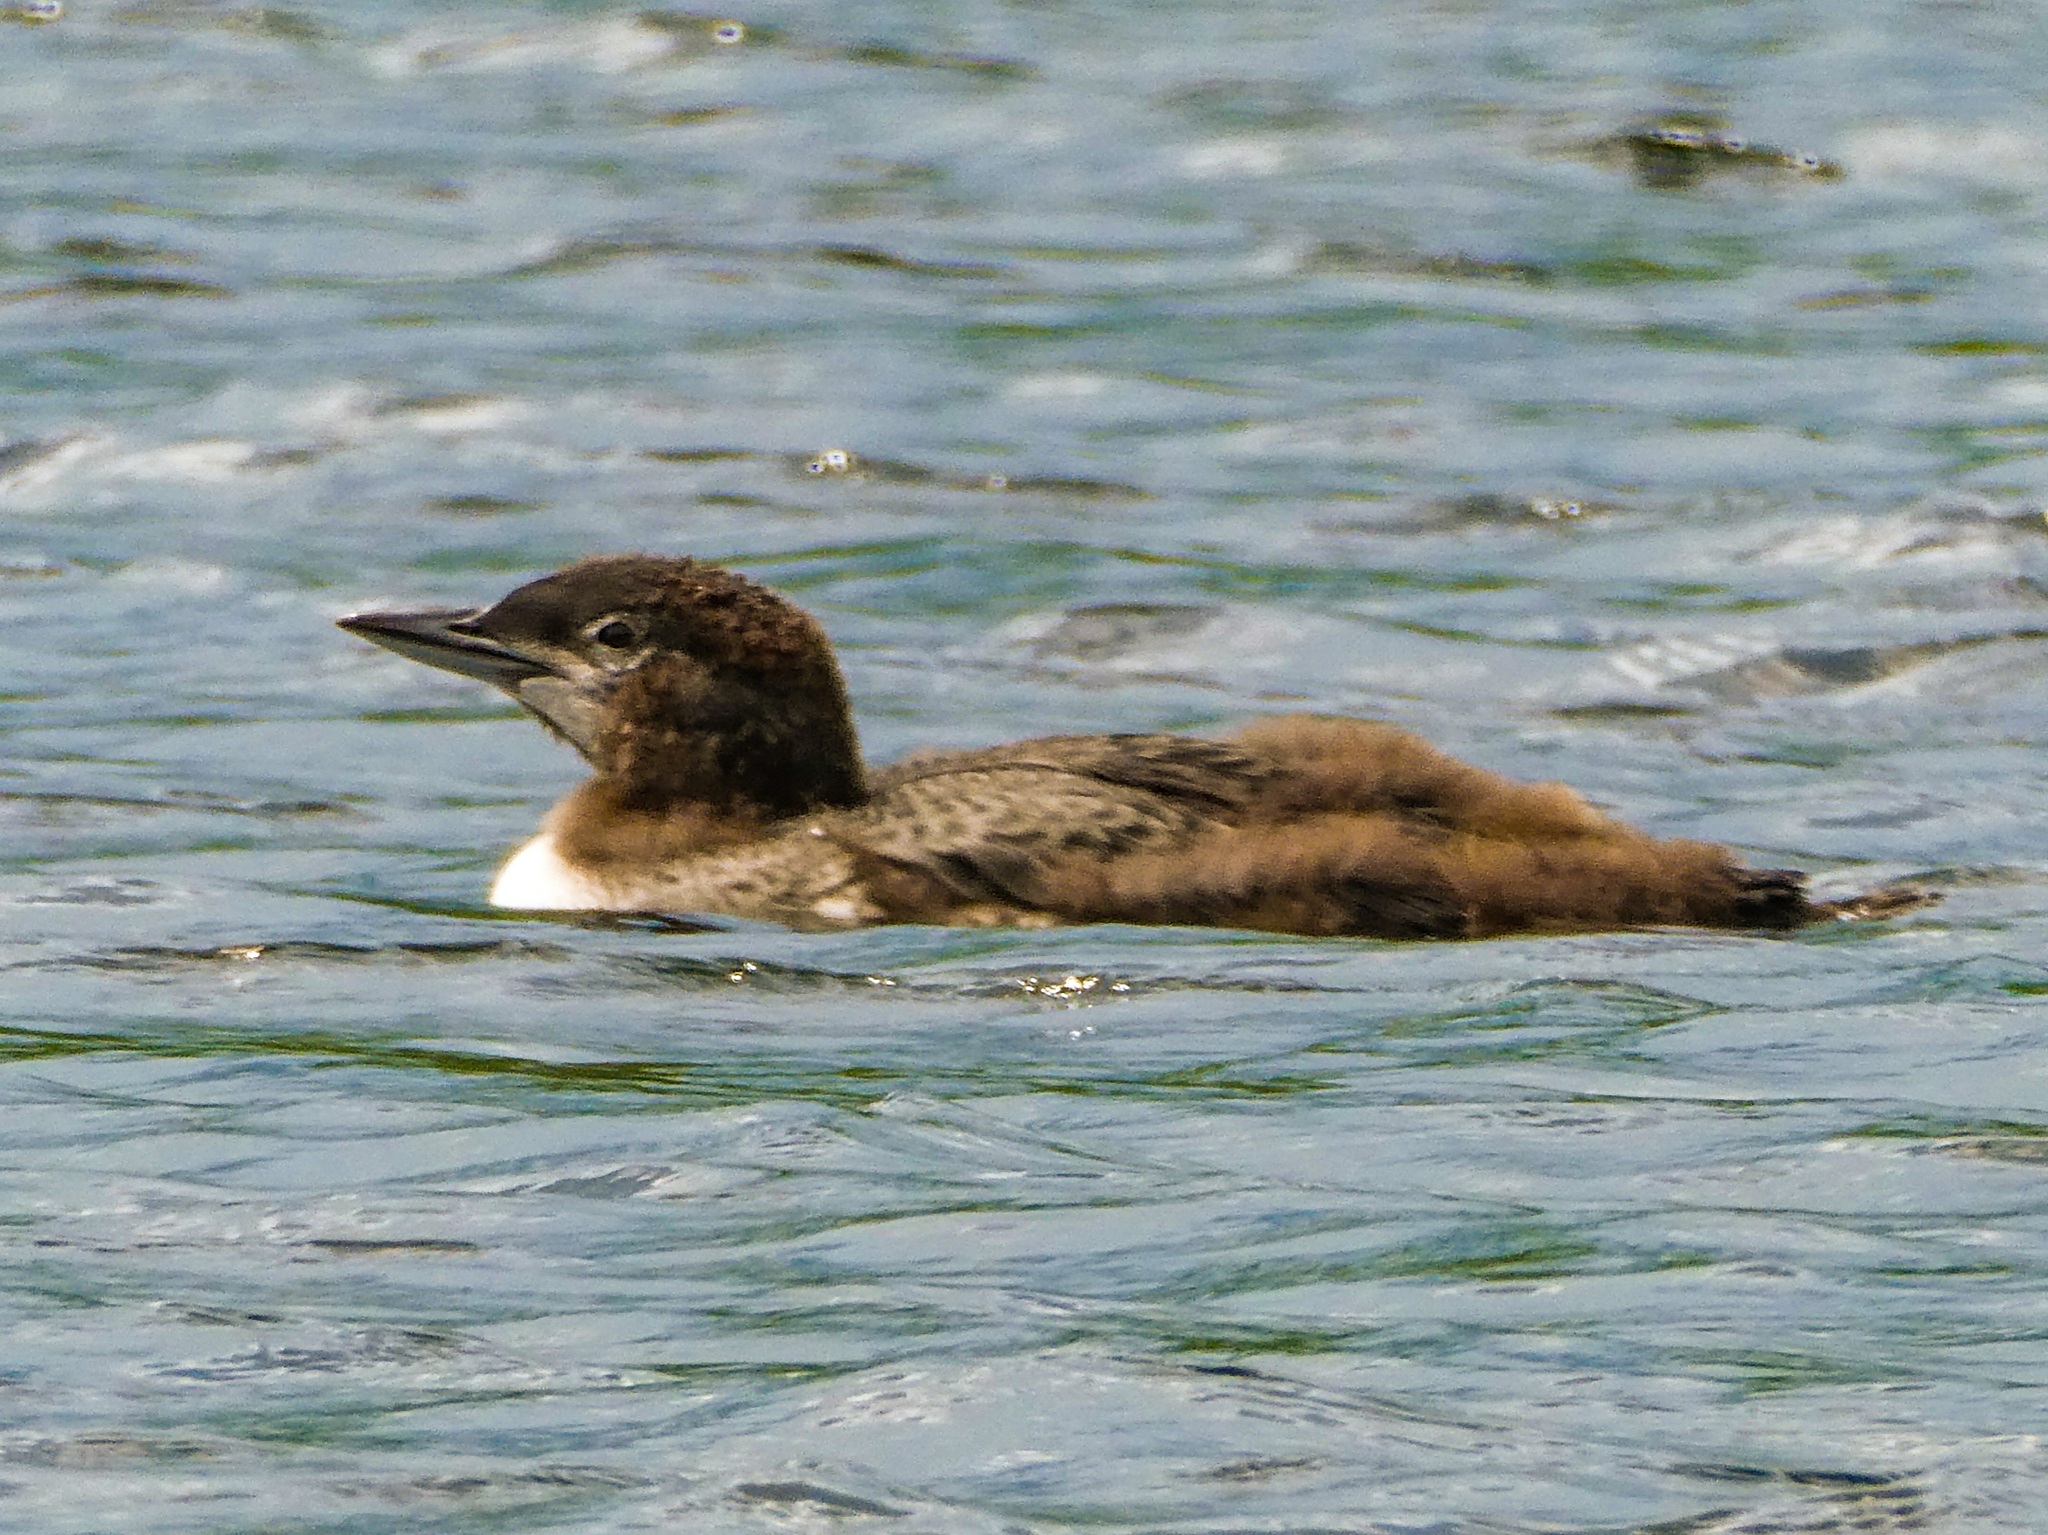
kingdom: Animalia
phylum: Chordata
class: Aves
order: Gaviiformes
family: Gaviidae
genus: Gavia
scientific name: Gavia immer
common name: Common loon
